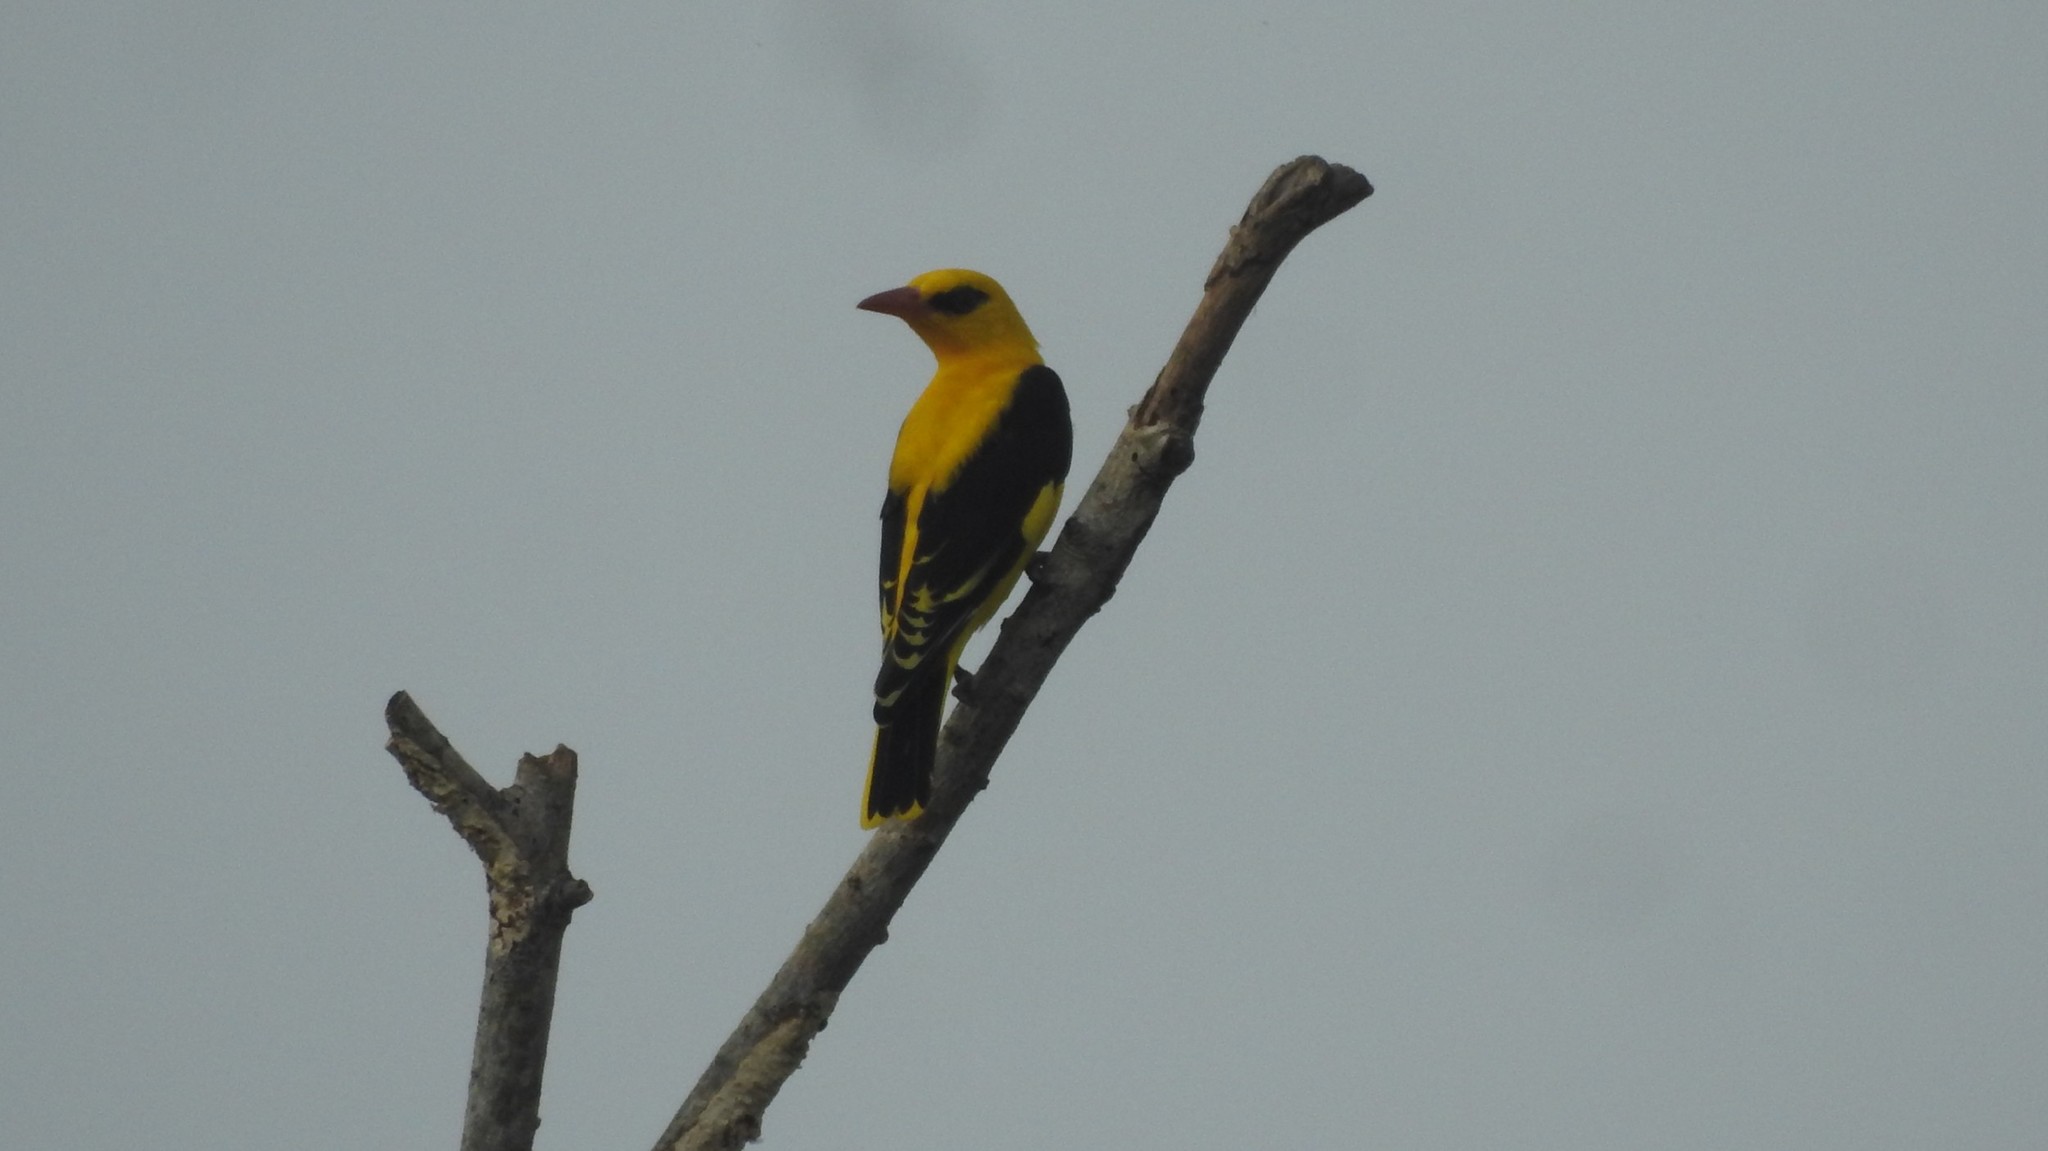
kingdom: Animalia
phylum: Chordata
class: Aves
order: Passeriformes
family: Oriolidae
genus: Oriolus
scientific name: Oriolus kundoo
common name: Indian golden oriole
